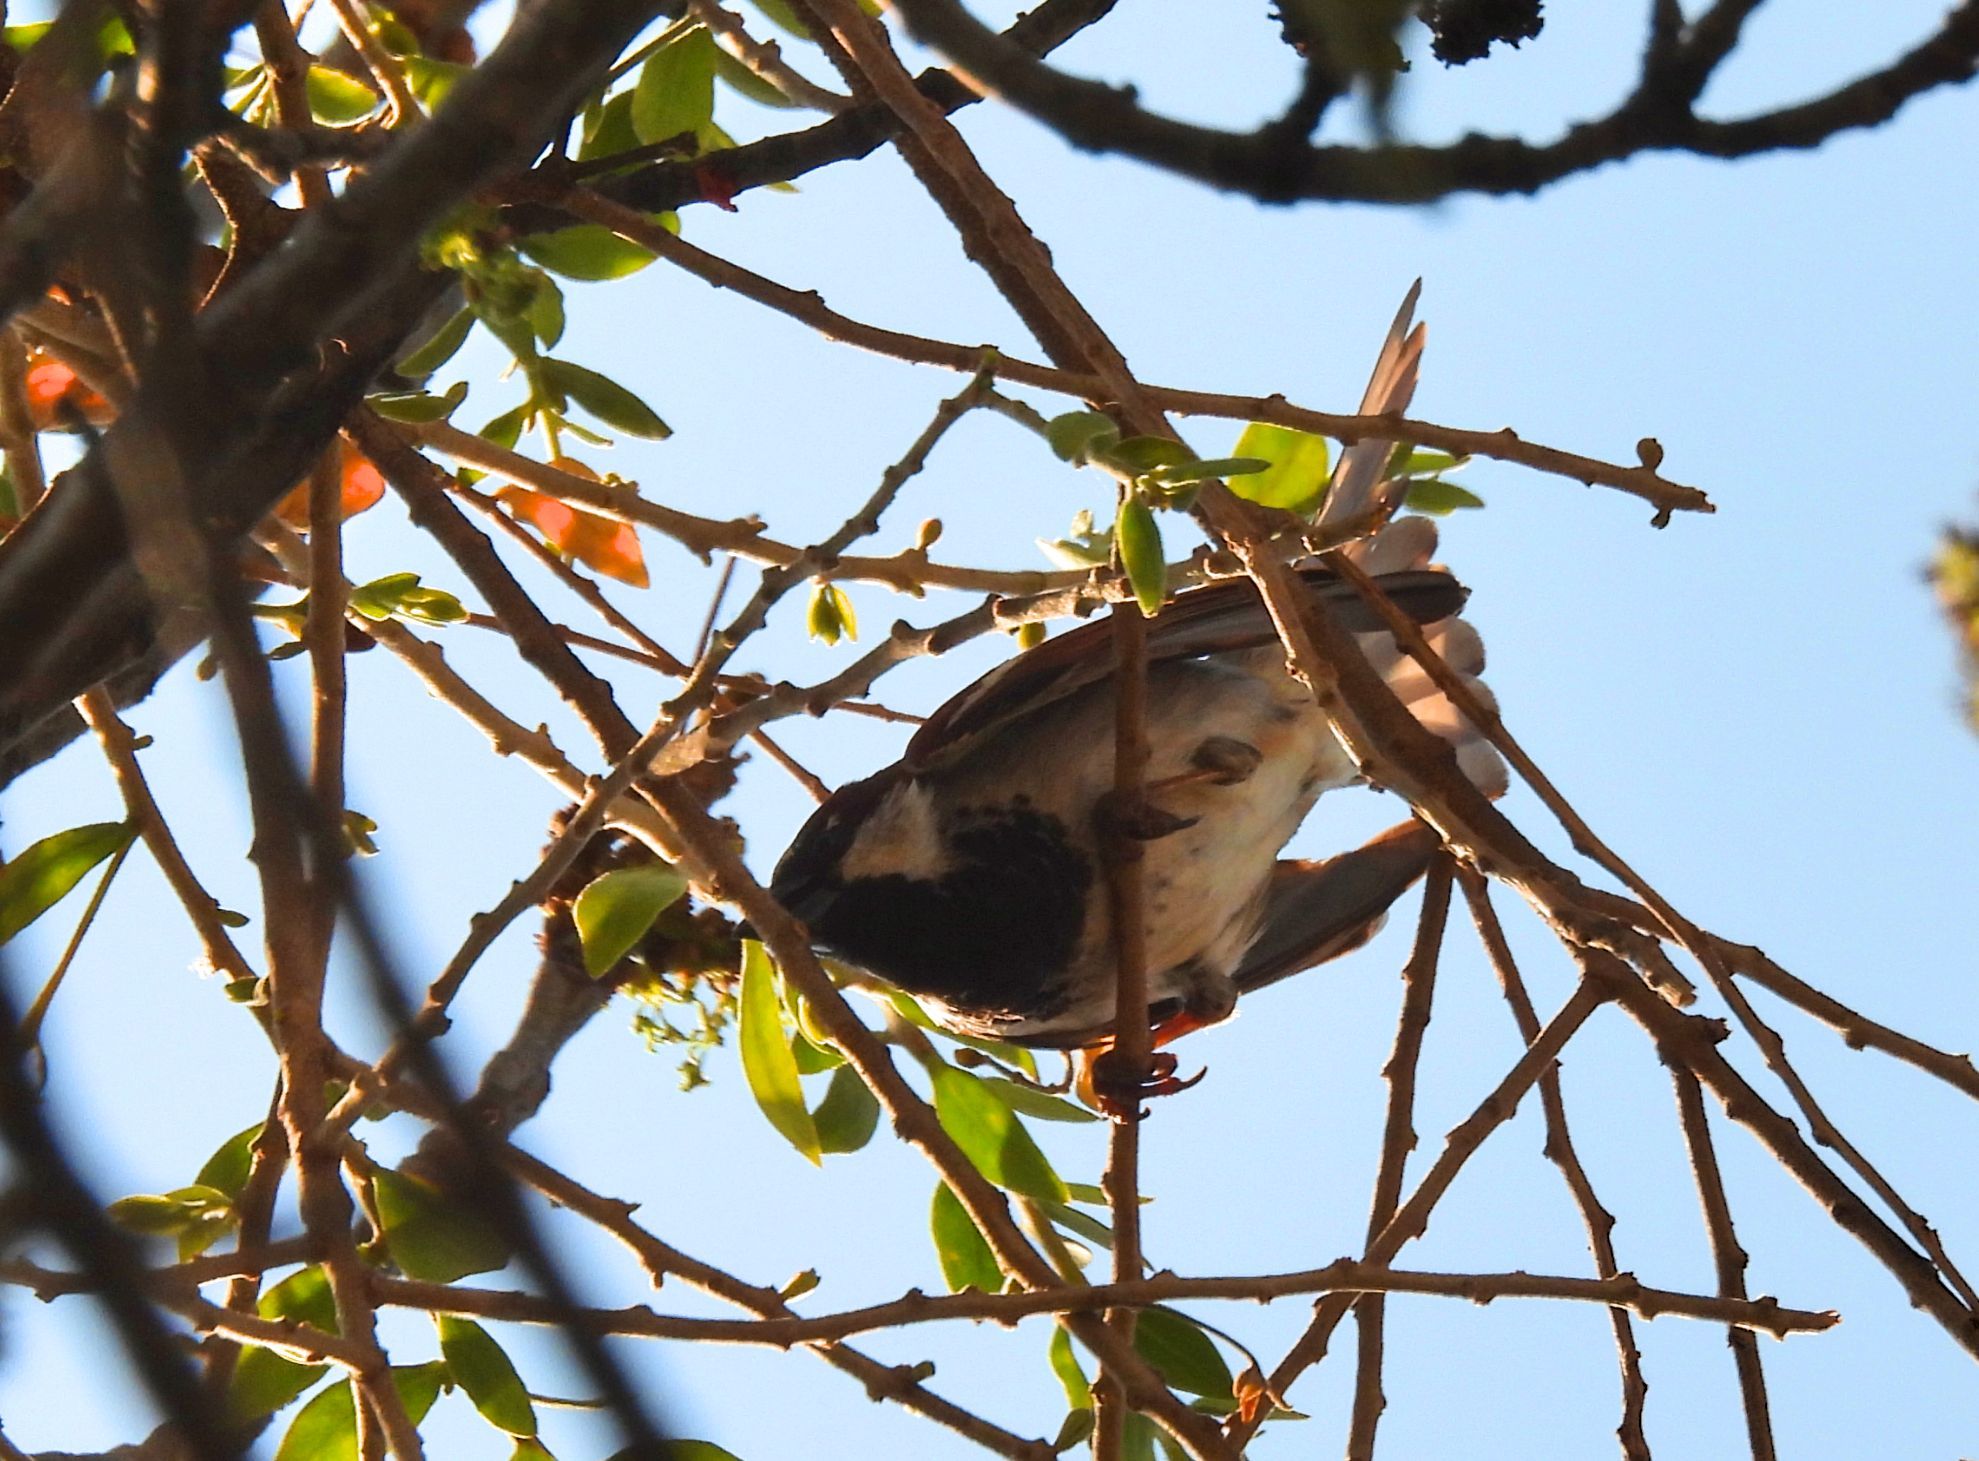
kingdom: Animalia
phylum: Chordata
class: Aves
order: Passeriformes
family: Passeridae
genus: Passer
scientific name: Passer domesticus
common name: House sparrow
